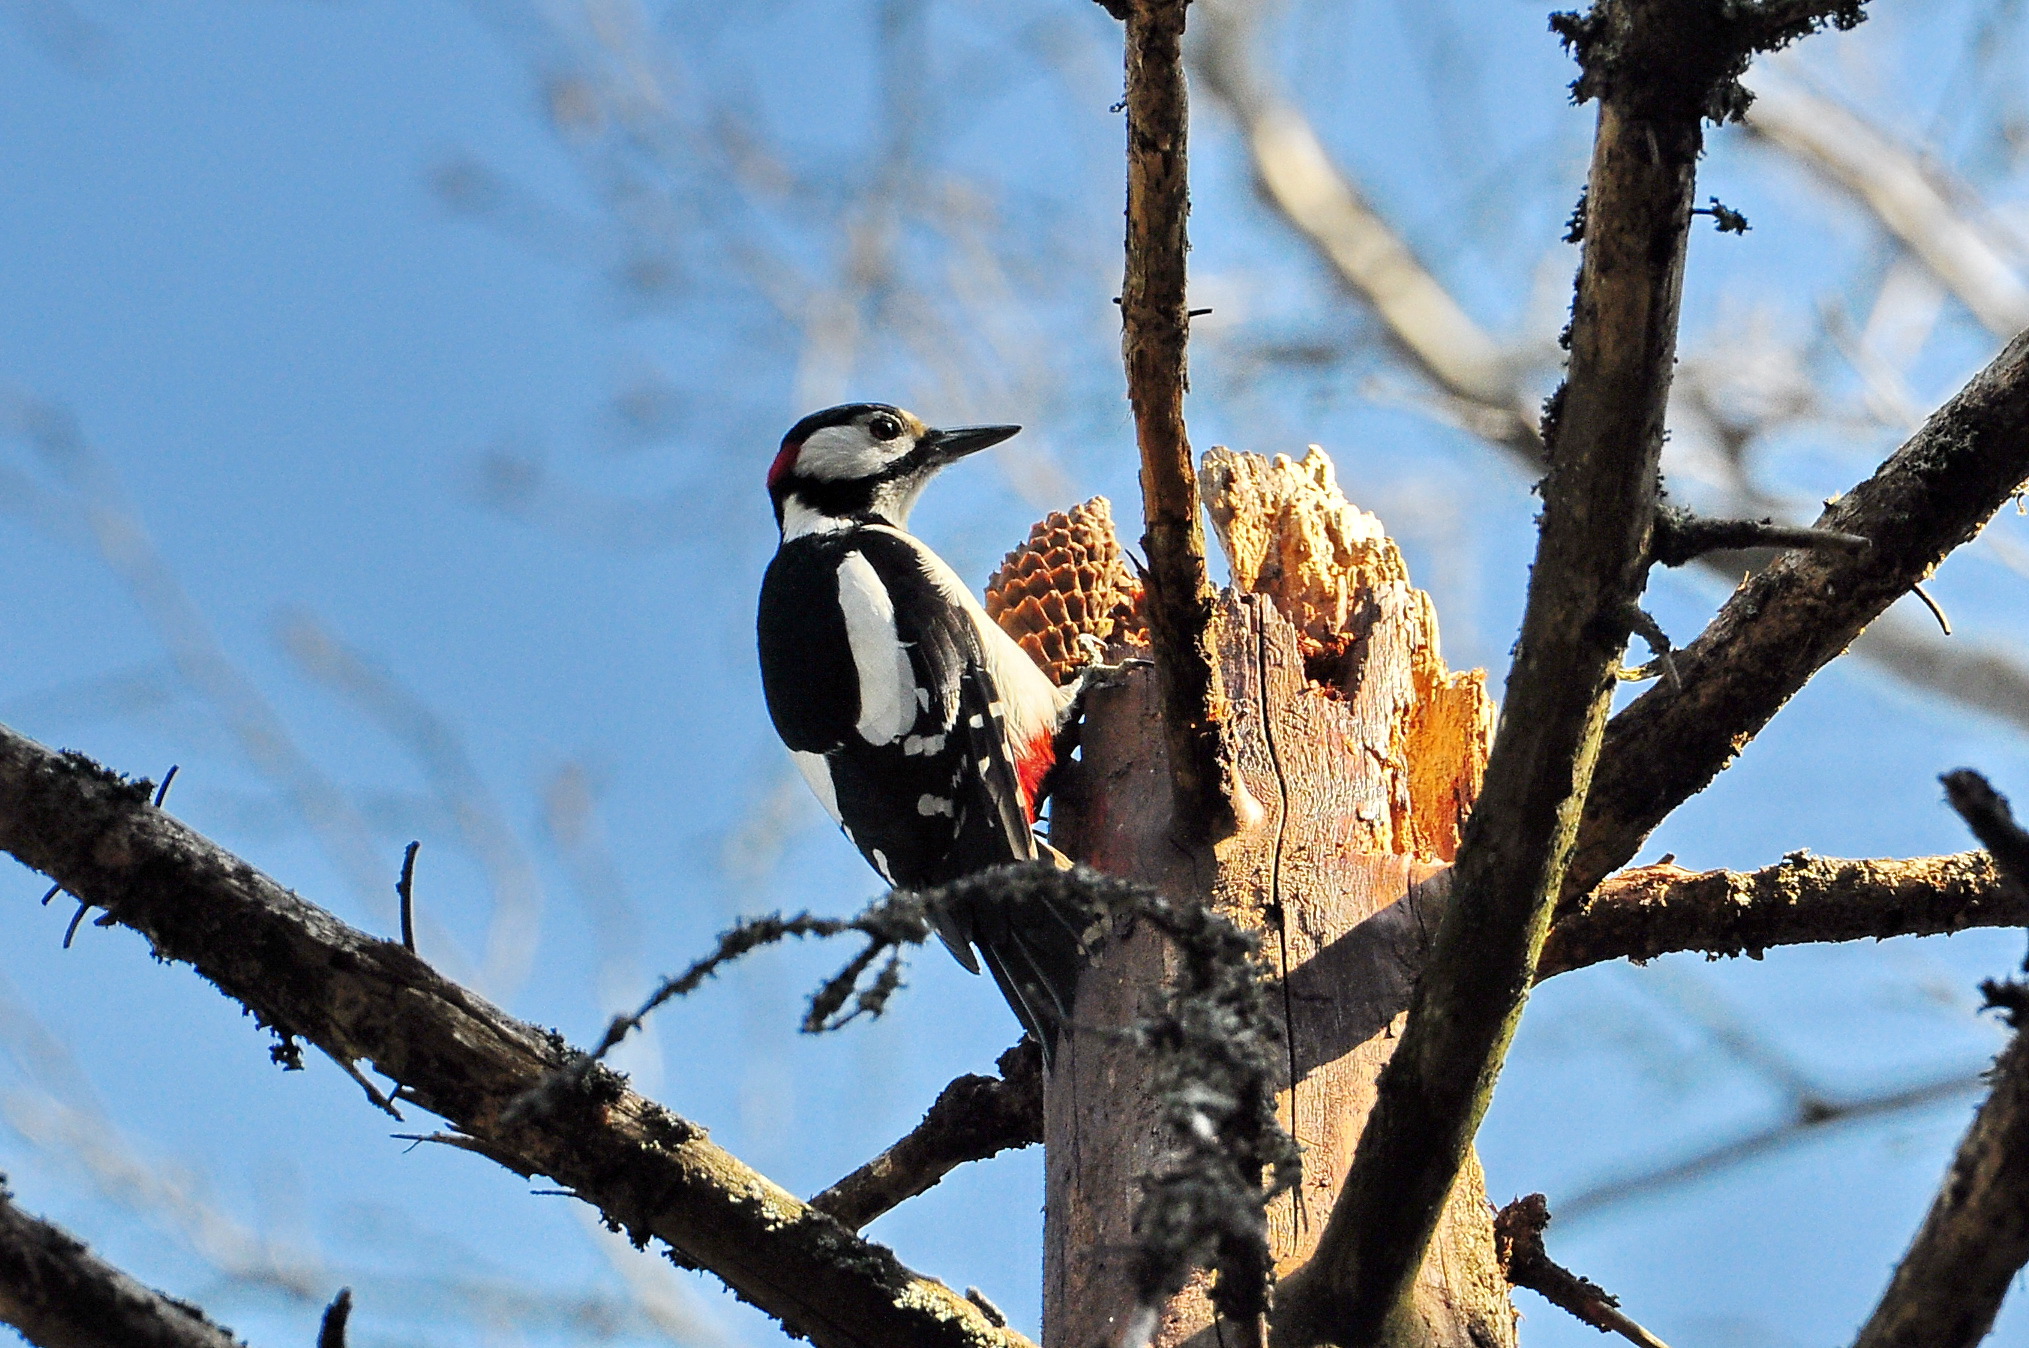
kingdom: Animalia
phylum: Chordata
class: Aves
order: Piciformes
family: Picidae
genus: Dendrocopos
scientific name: Dendrocopos major
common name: Great spotted woodpecker
